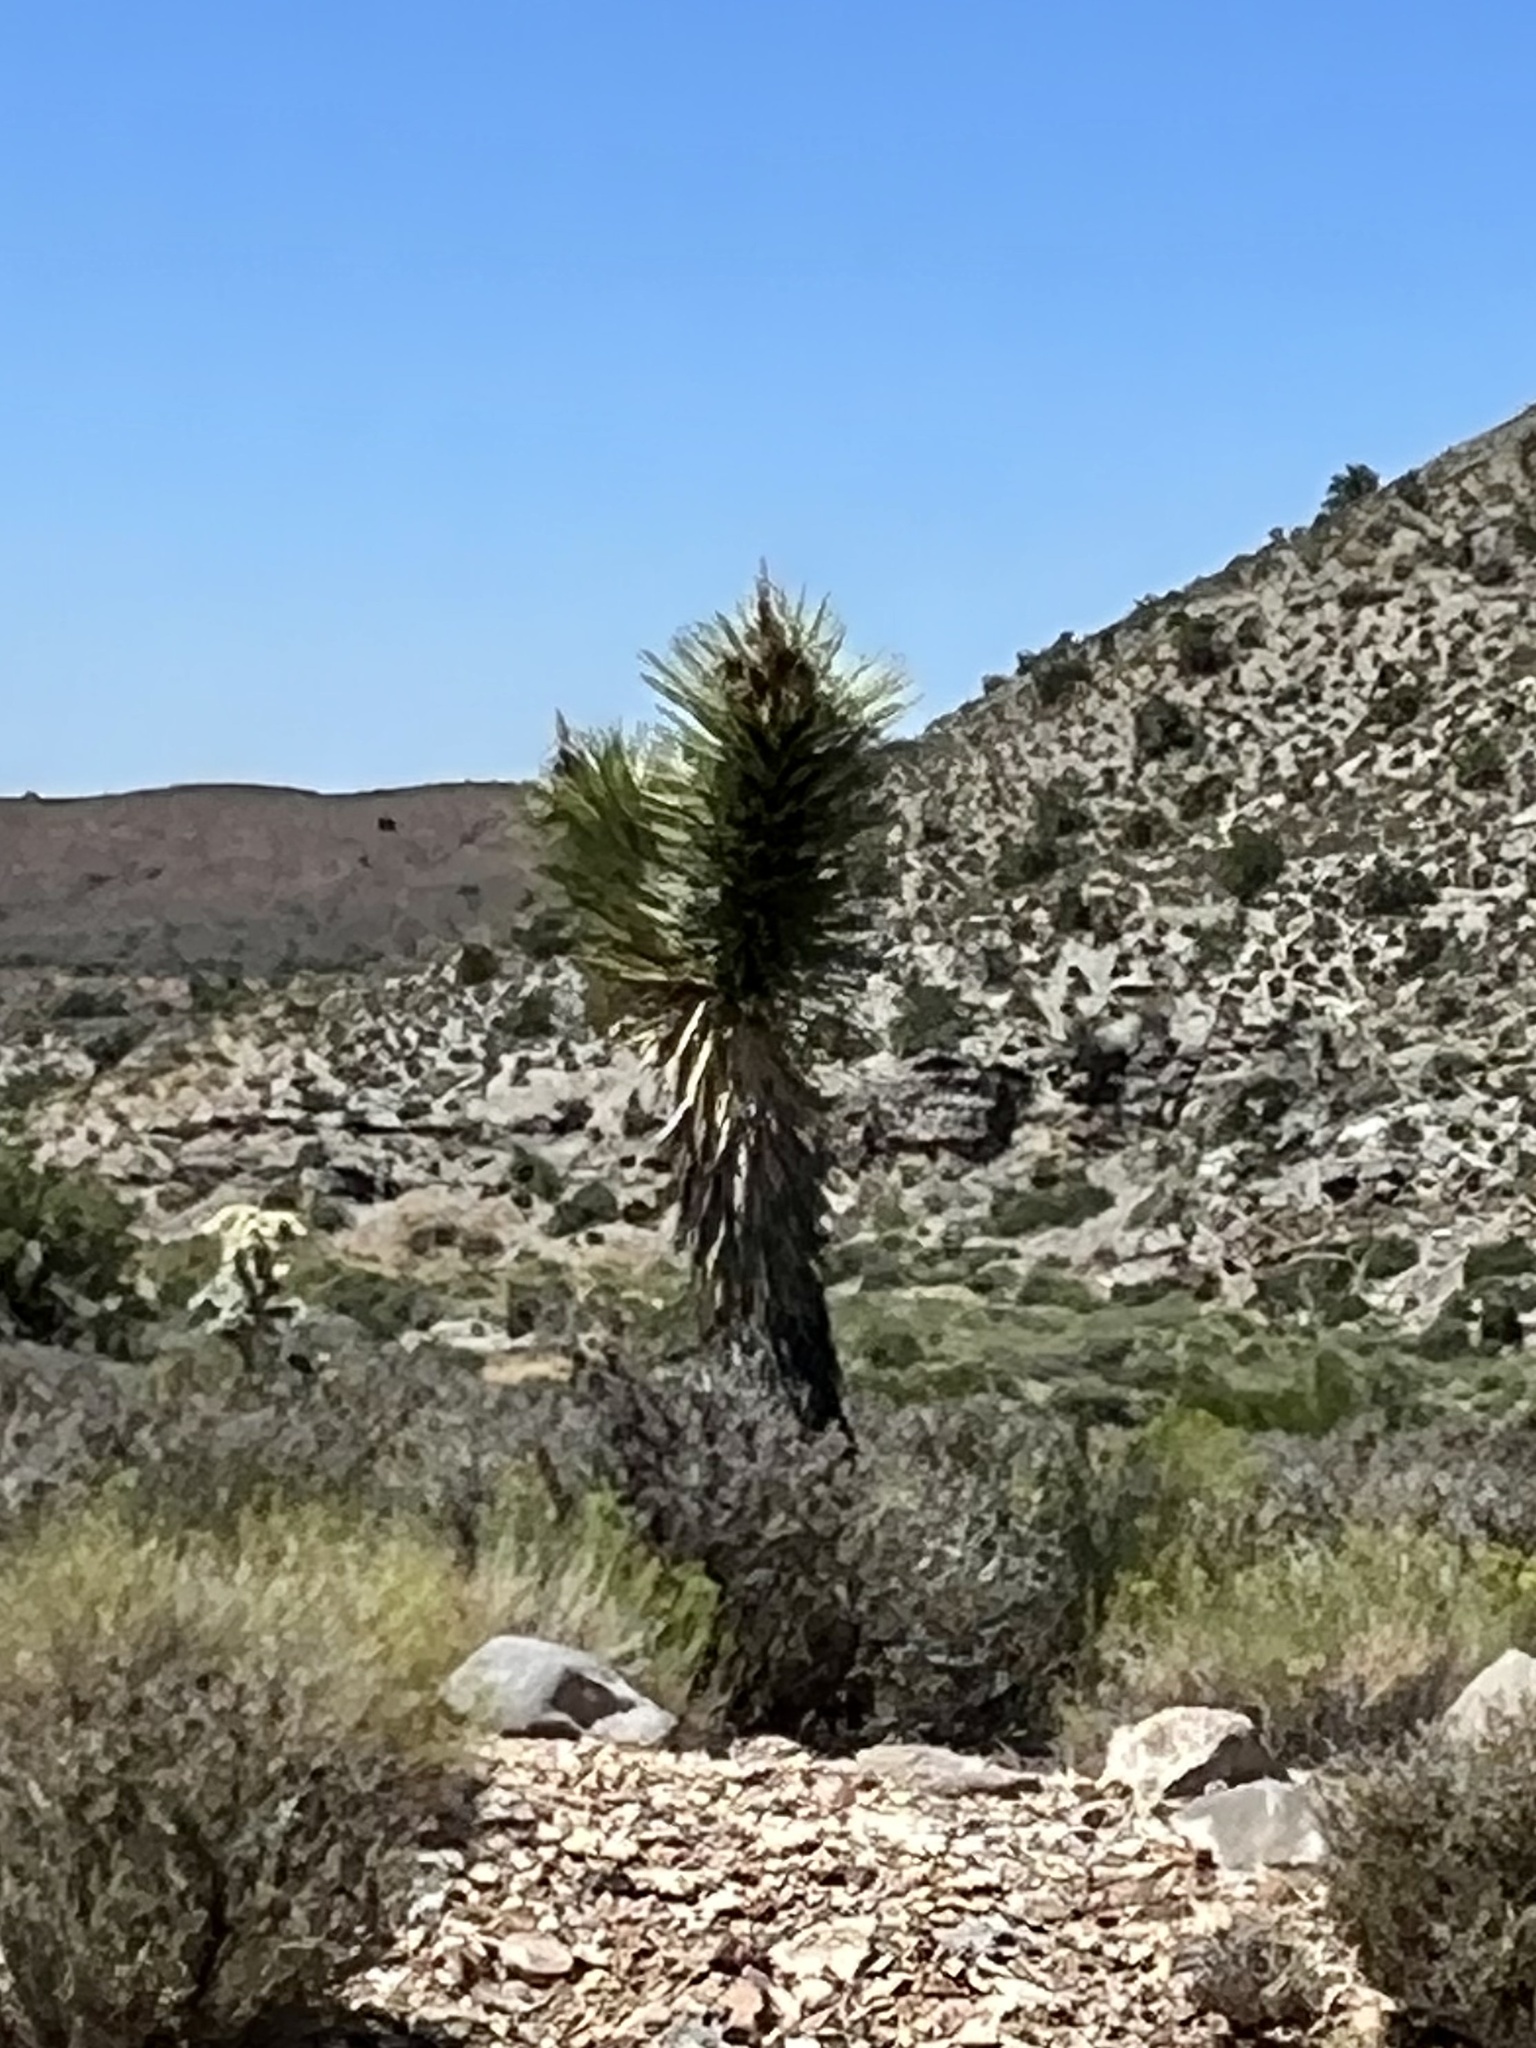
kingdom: Plantae
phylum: Tracheophyta
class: Liliopsida
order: Asparagales
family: Asparagaceae
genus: Yucca
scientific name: Yucca brevifolia
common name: Joshua tree
